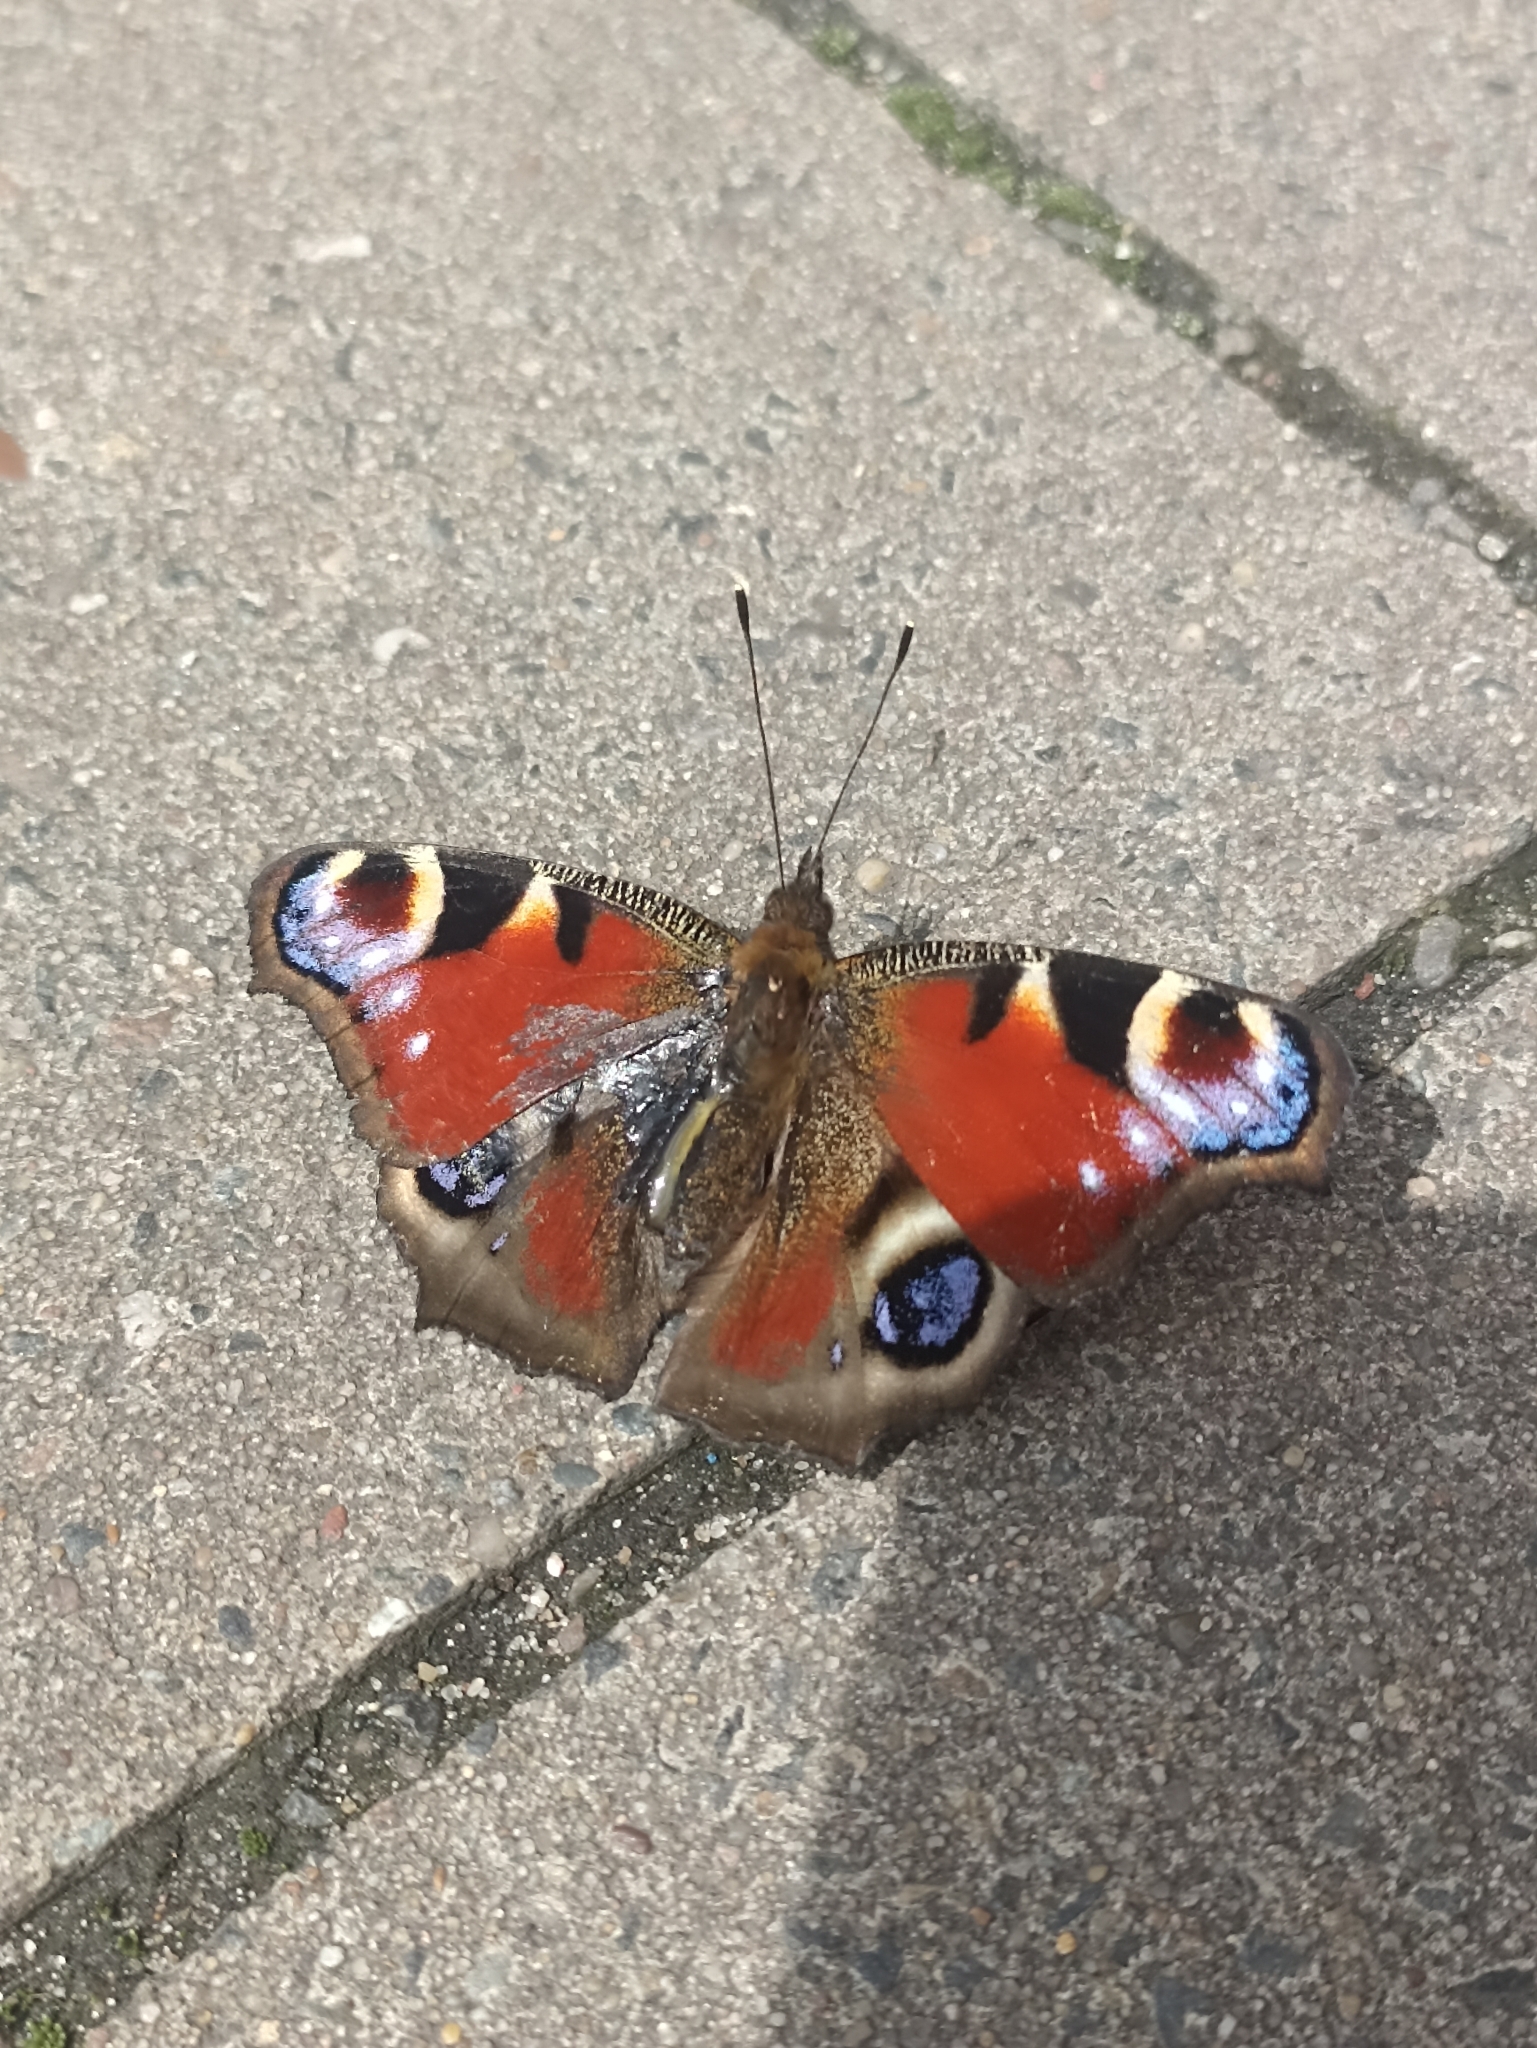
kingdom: Animalia
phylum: Arthropoda
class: Insecta
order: Lepidoptera
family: Nymphalidae
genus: Aglais
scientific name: Aglais io
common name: Peacock
